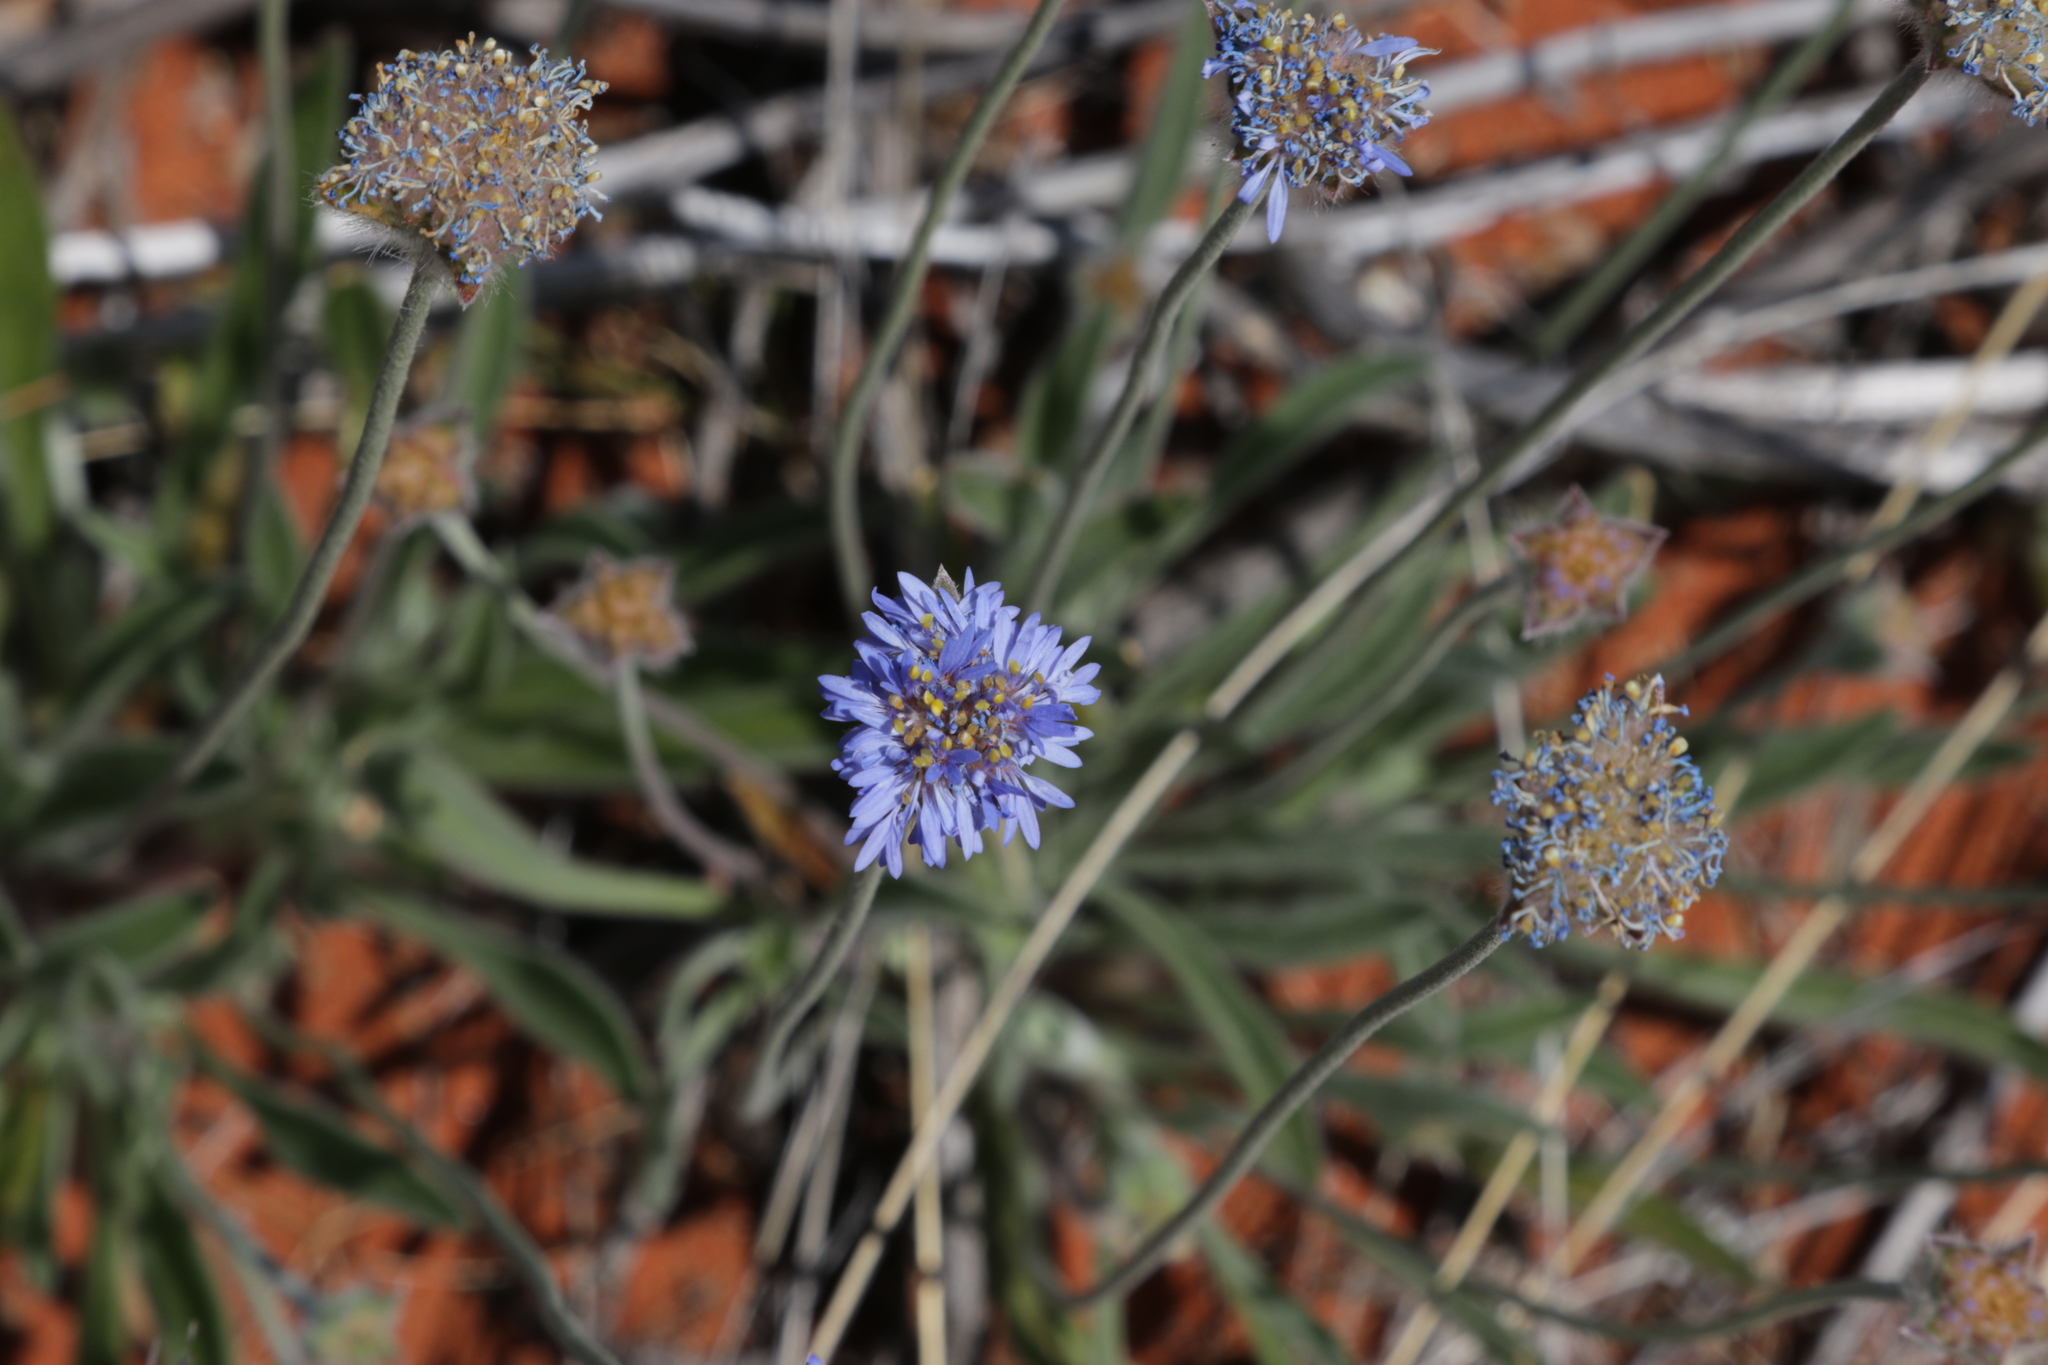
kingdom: Plantae
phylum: Tracheophyta
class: Magnoliopsida
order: Asterales
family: Goodeniaceae
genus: Brunonia
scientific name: Brunonia australis
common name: Blue pincushion
